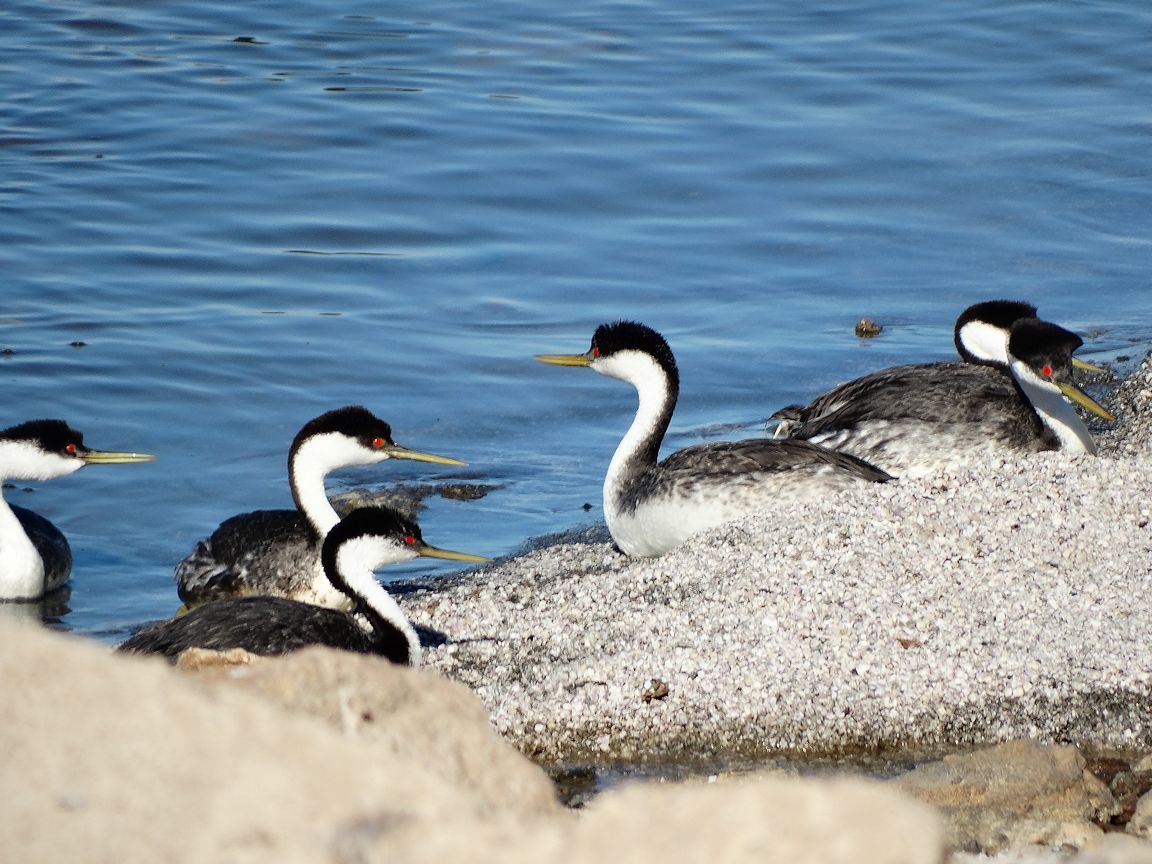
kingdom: Animalia
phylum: Chordata
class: Aves
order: Podicipediformes
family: Podicipedidae
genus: Aechmophorus
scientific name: Aechmophorus occidentalis
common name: Western grebe
